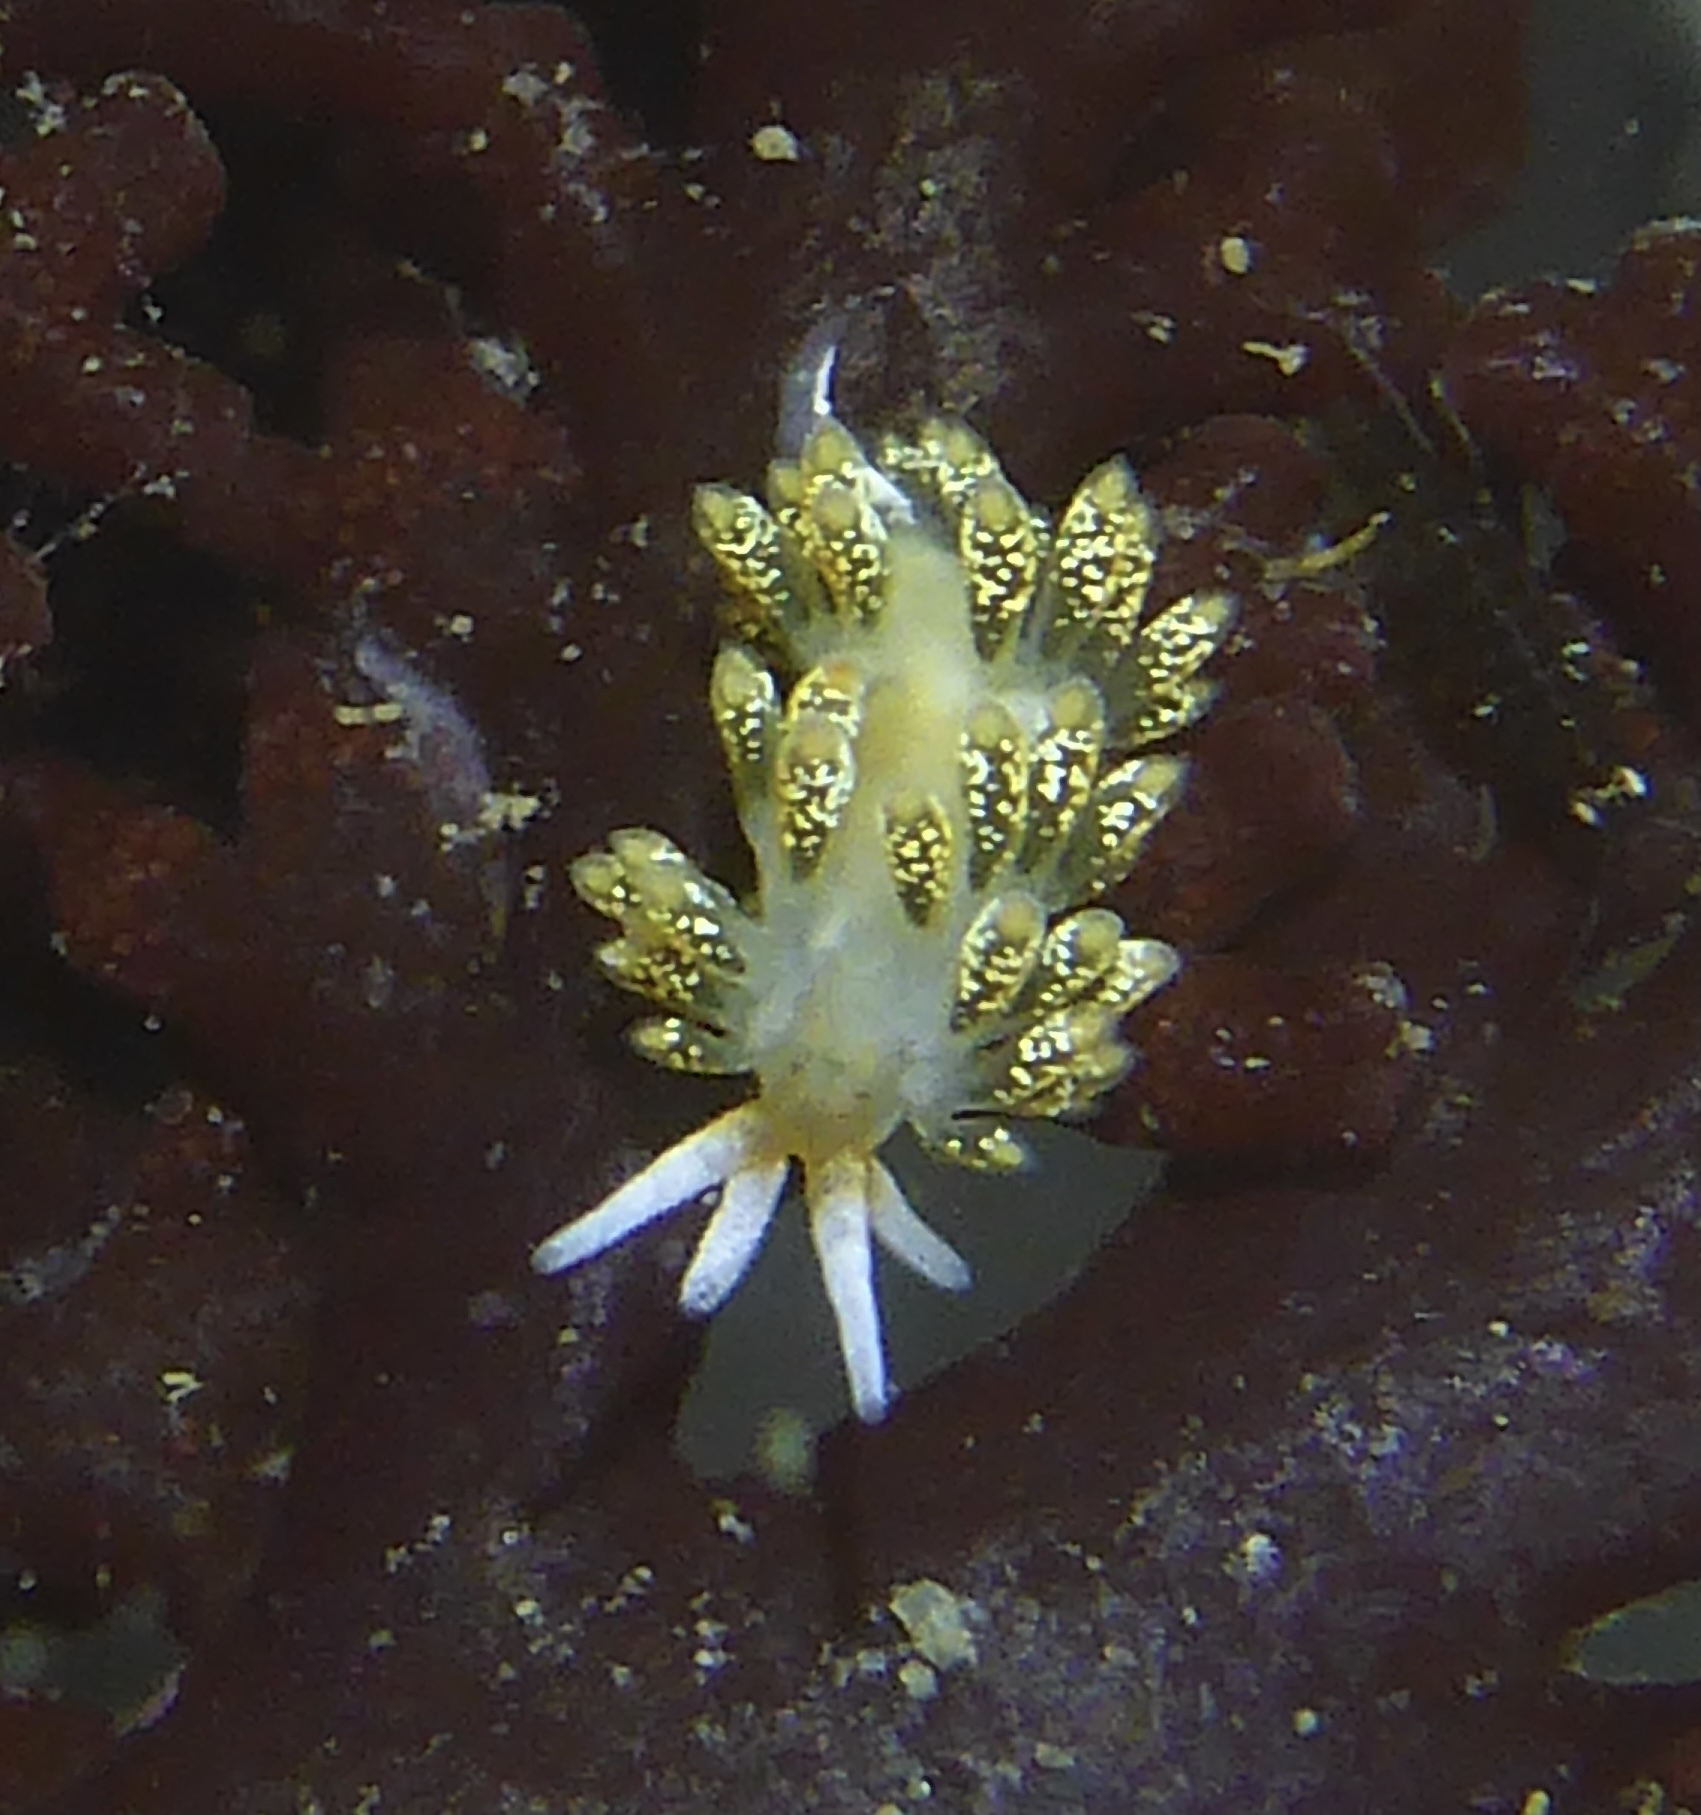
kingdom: Animalia
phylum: Mollusca
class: Gastropoda
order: Nudibranchia
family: Trinchesiidae
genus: Diaphoreolis
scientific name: Diaphoreolis flavovulta
